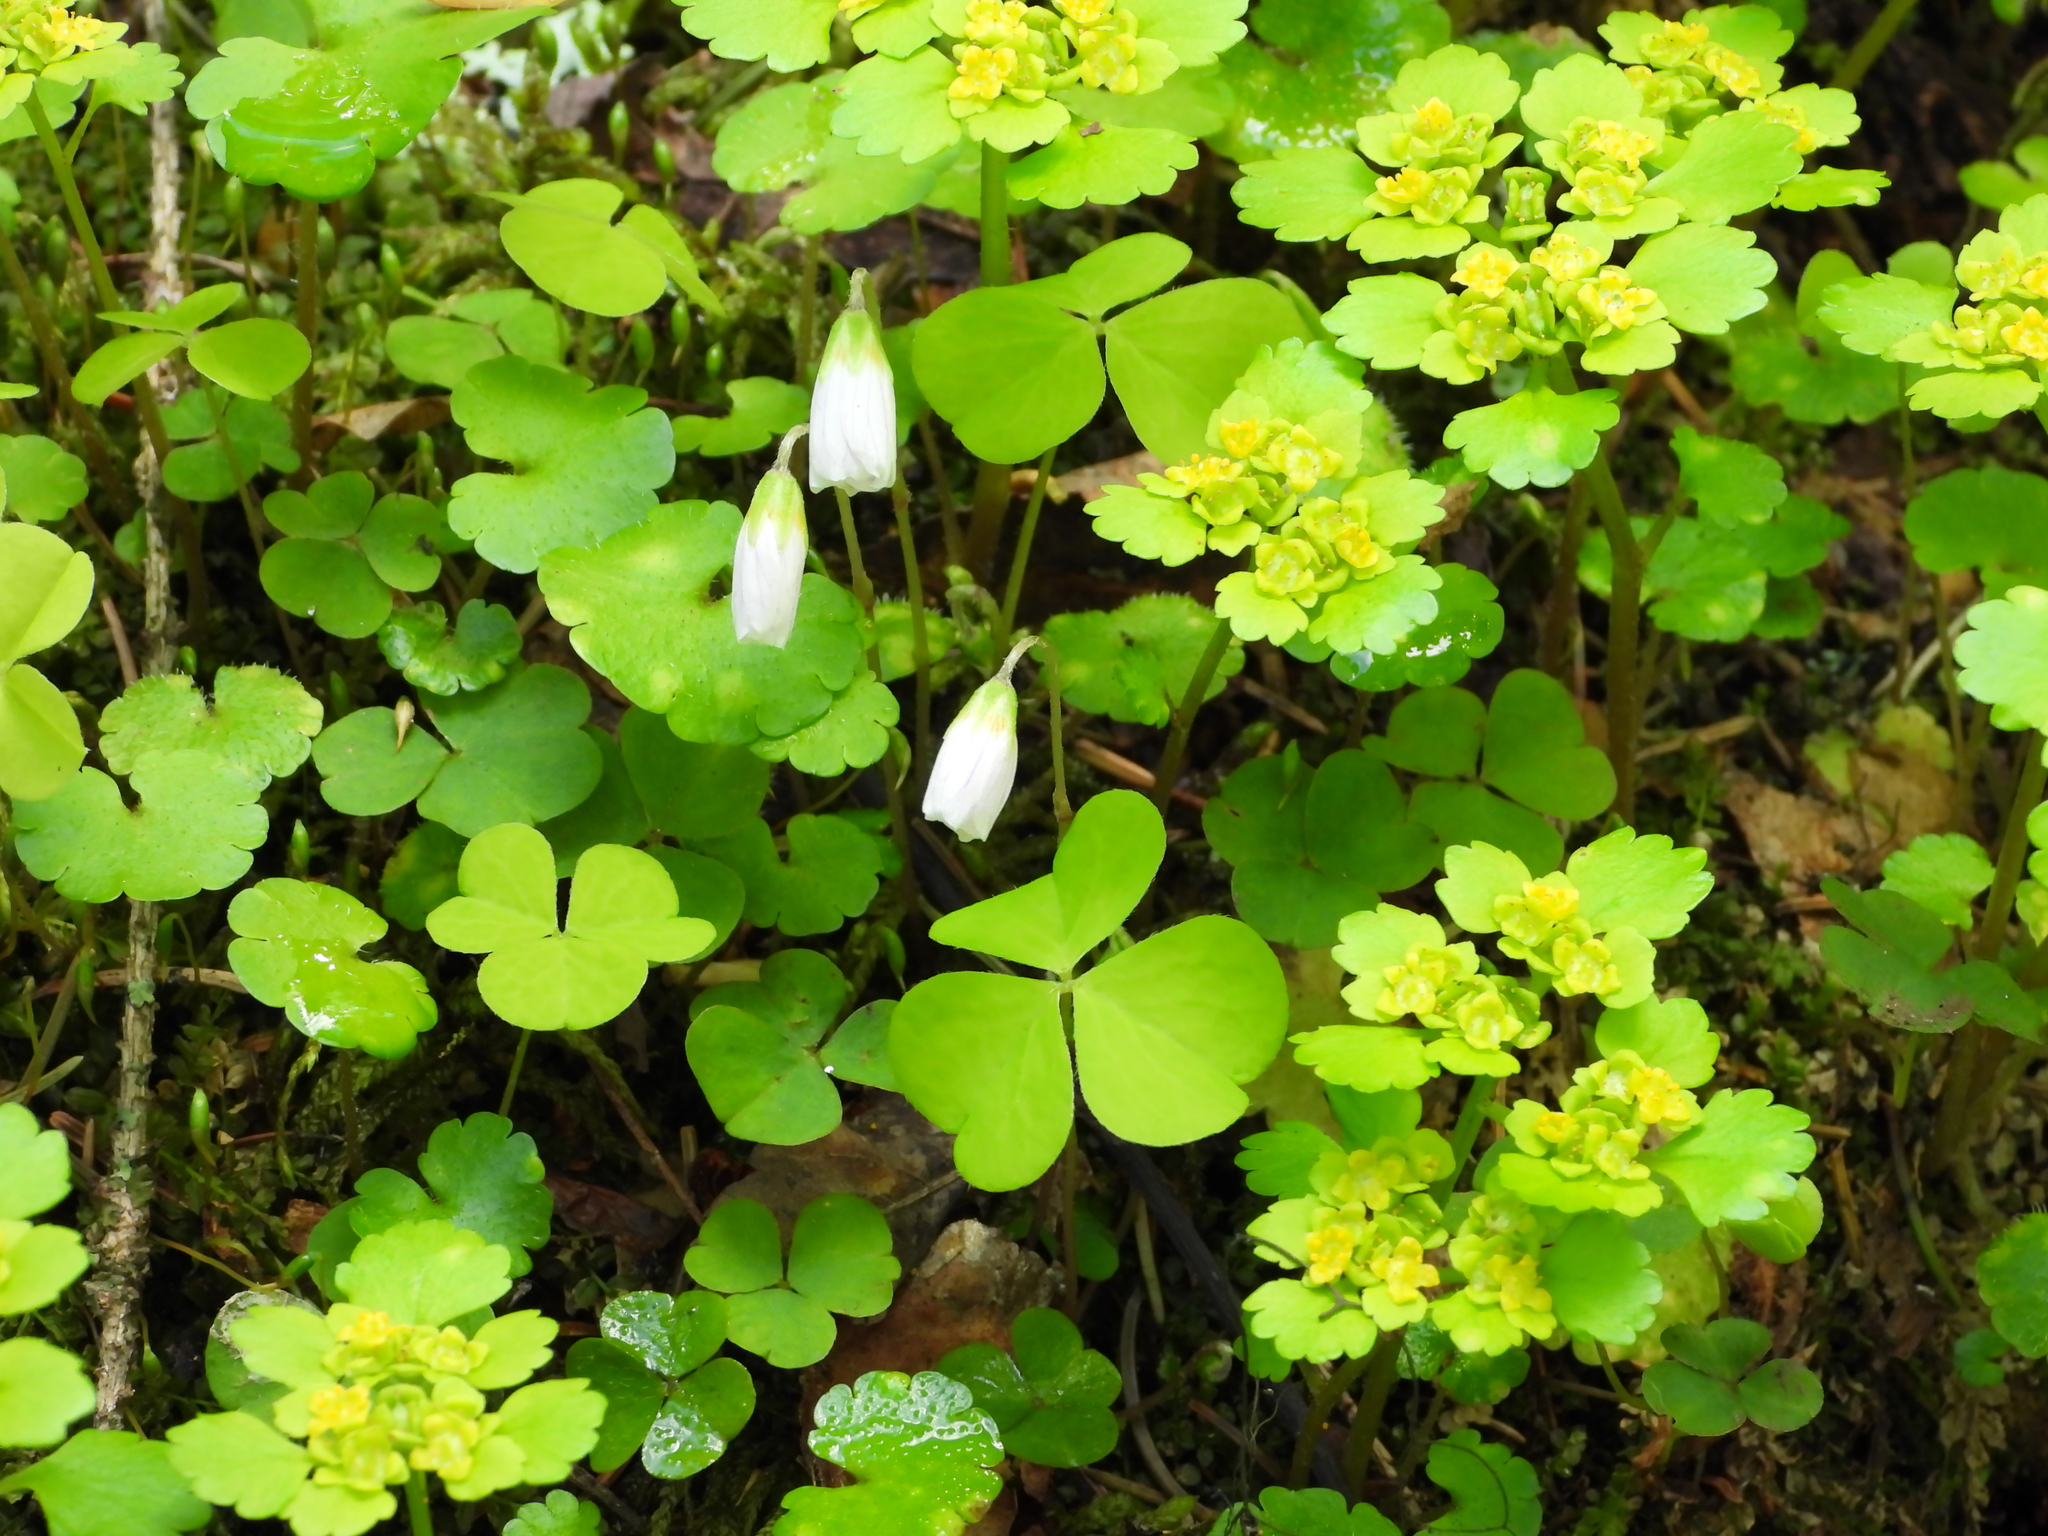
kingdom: Plantae
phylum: Tracheophyta
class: Magnoliopsida
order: Oxalidales
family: Oxalidaceae
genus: Oxalis
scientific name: Oxalis acetosella
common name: Wood-sorrel
